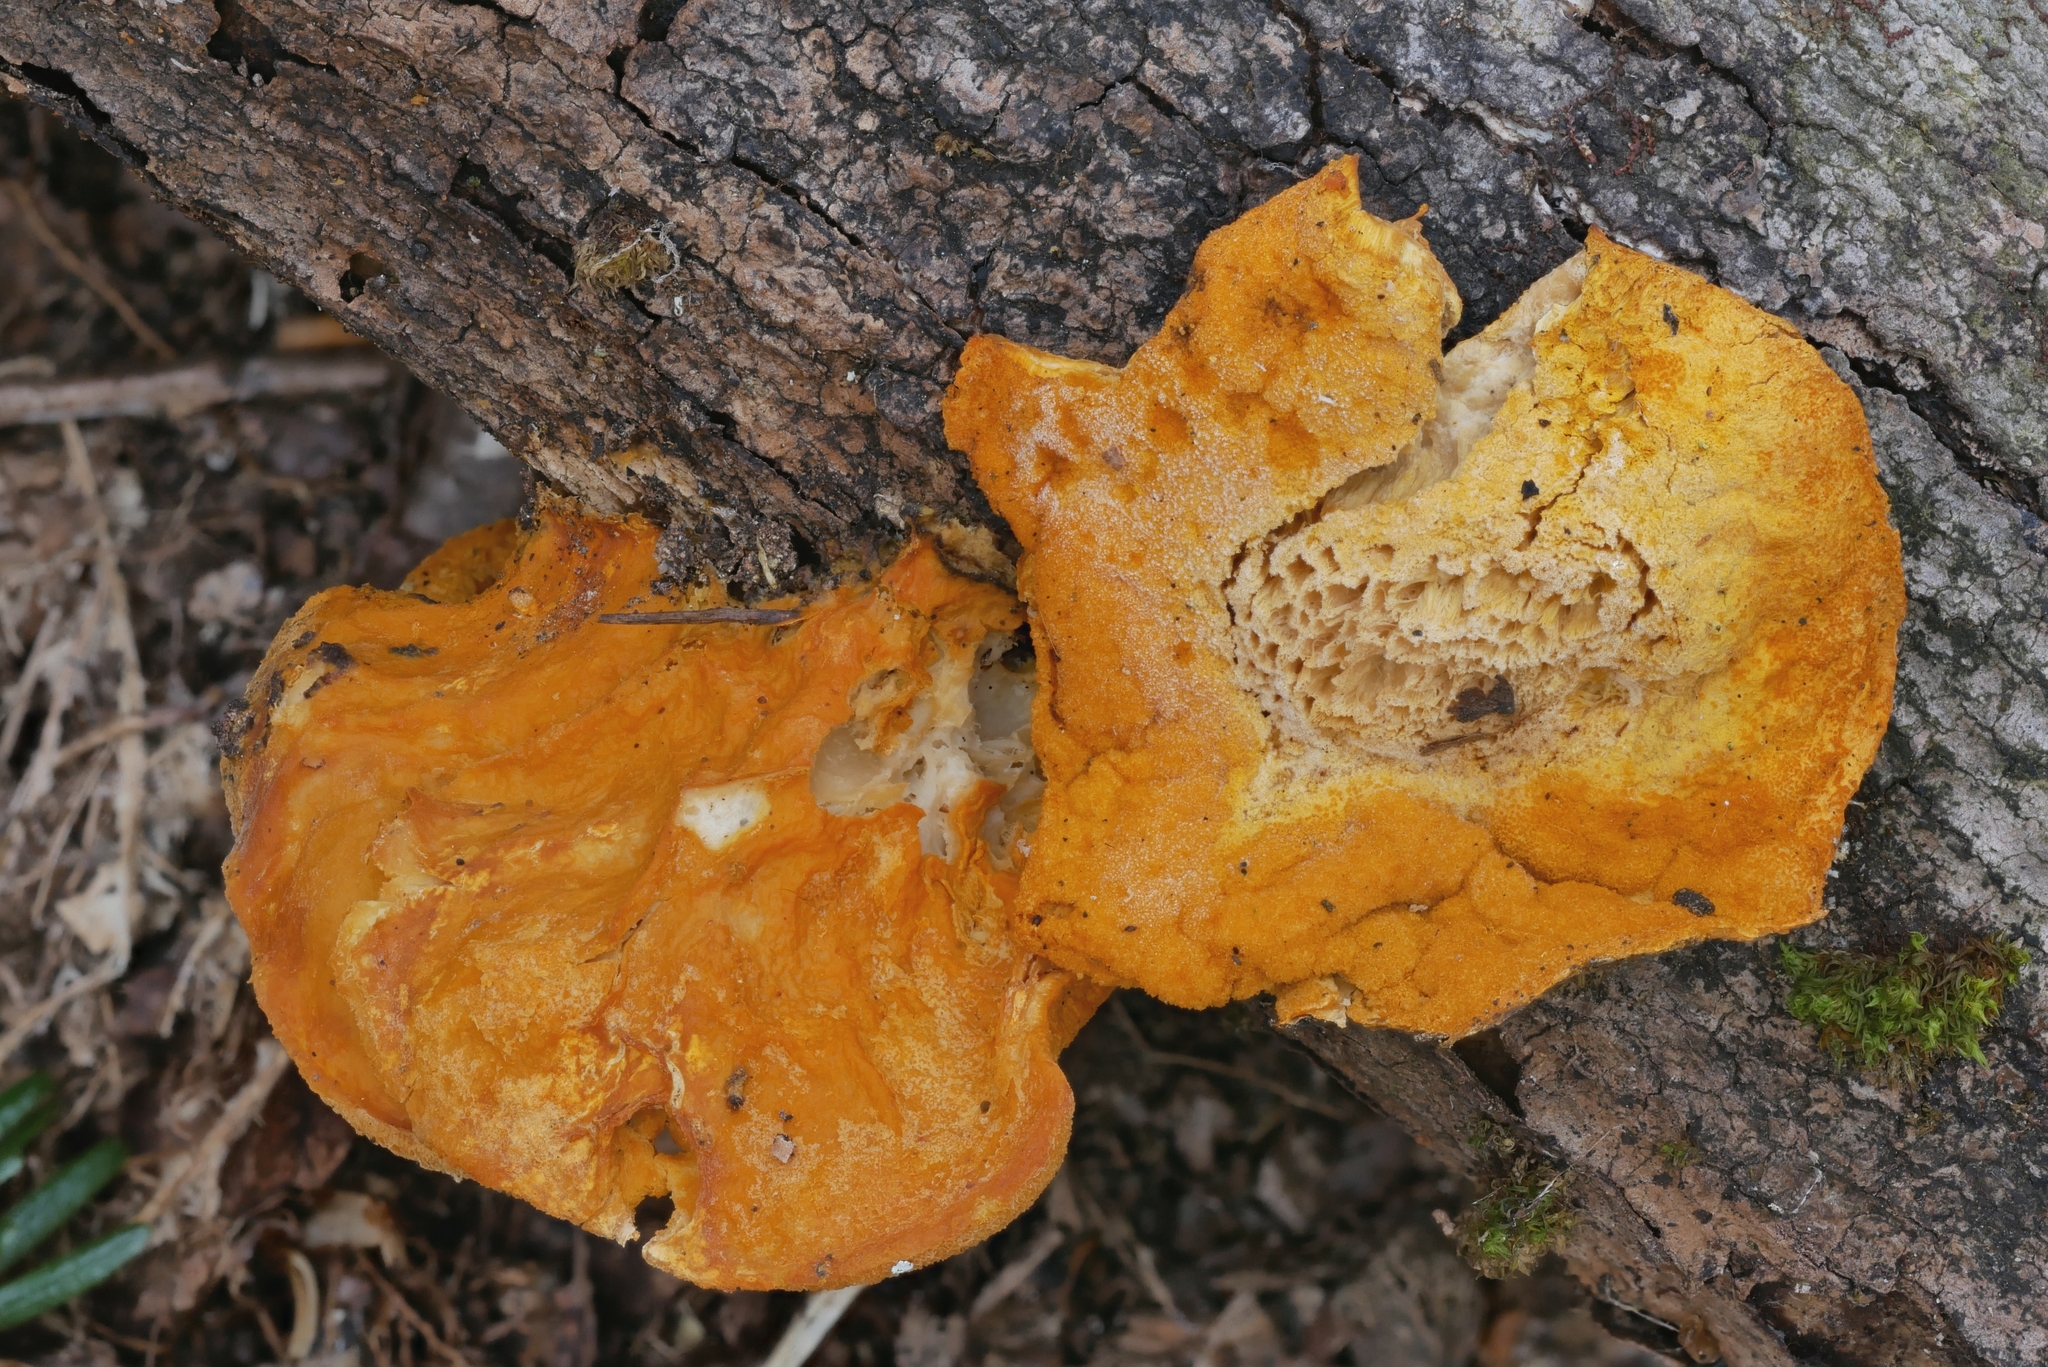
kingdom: Fungi
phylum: Ascomycota
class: Sordariomycetes
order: Hypocreales
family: Hypocreaceae
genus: Protocrea
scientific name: Protocrea pallida
